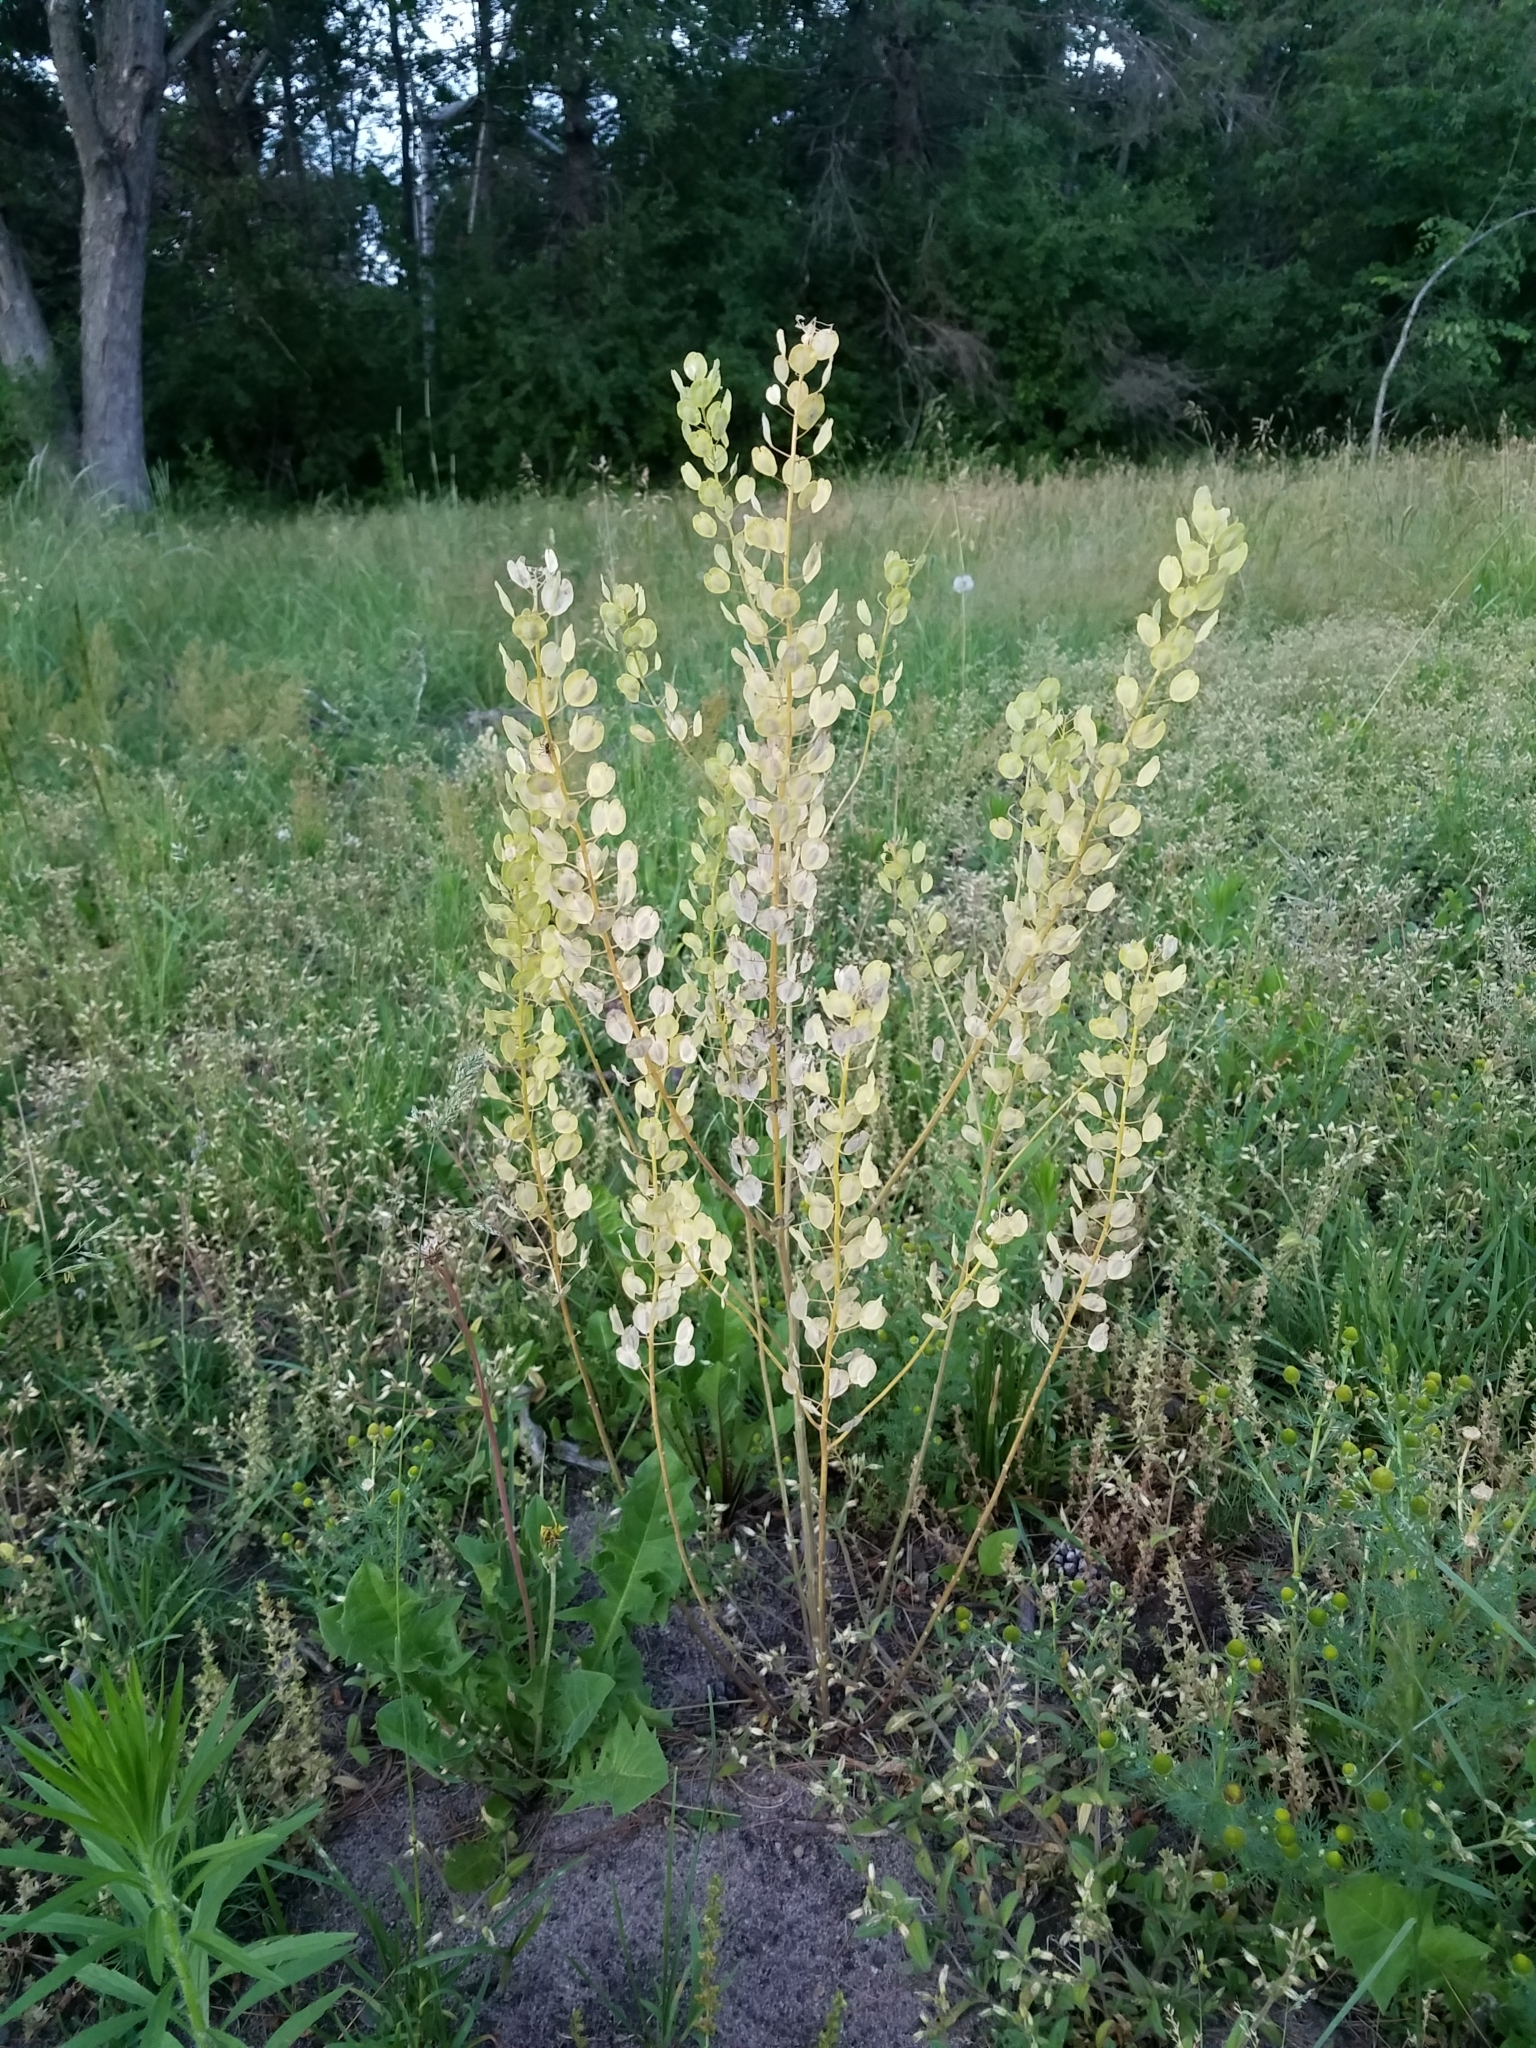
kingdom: Plantae
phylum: Tracheophyta
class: Magnoliopsida
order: Brassicales
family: Brassicaceae
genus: Thlaspi
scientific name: Thlaspi arvense
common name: Field pennycress
